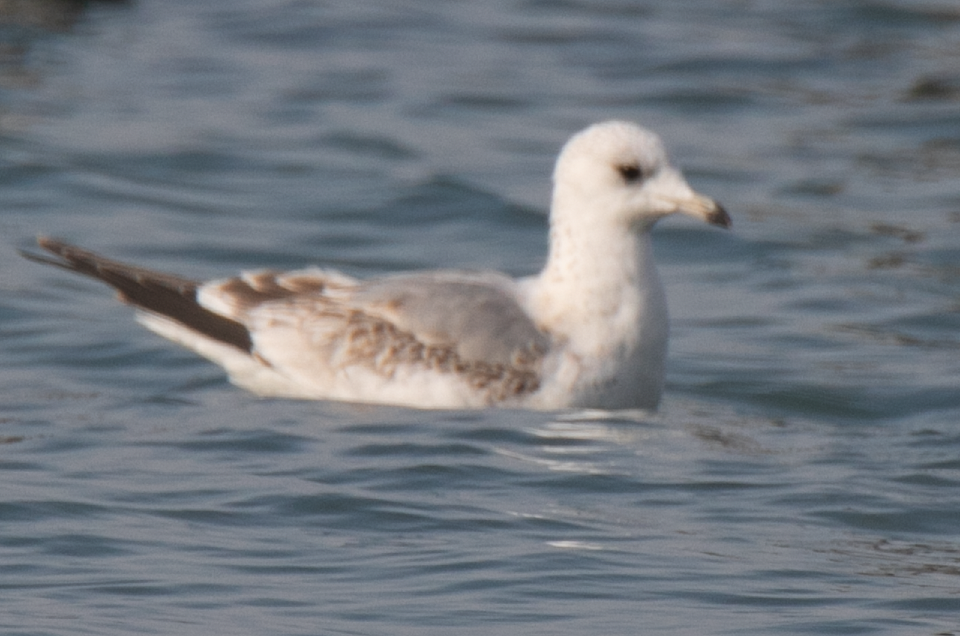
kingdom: Animalia
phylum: Chordata
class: Aves
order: Charadriiformes
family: Laridae
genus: Larus
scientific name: Larus canus
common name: Mew gull
